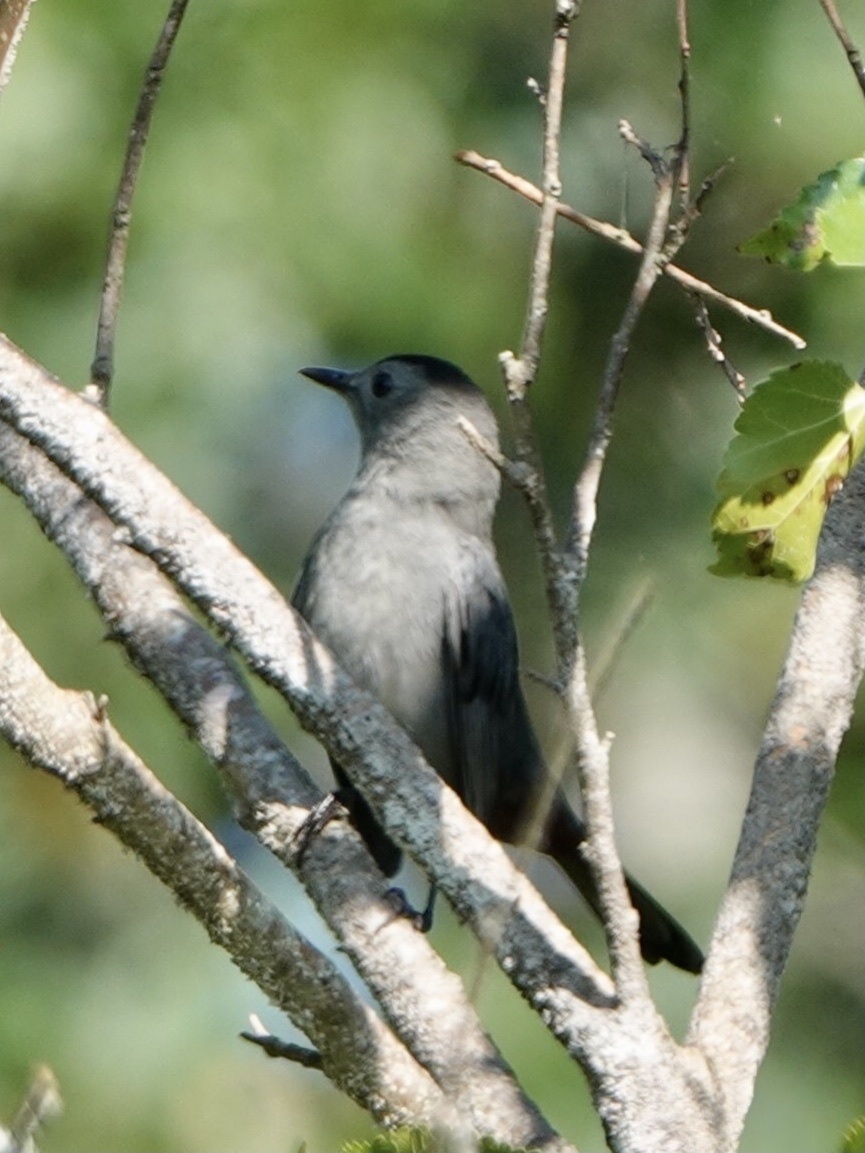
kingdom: Animalia
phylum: Chordata
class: Aves
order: Passeriformes
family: Mimidae
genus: Dumetella
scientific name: Dumetella carolinensis
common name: Gray catbird
